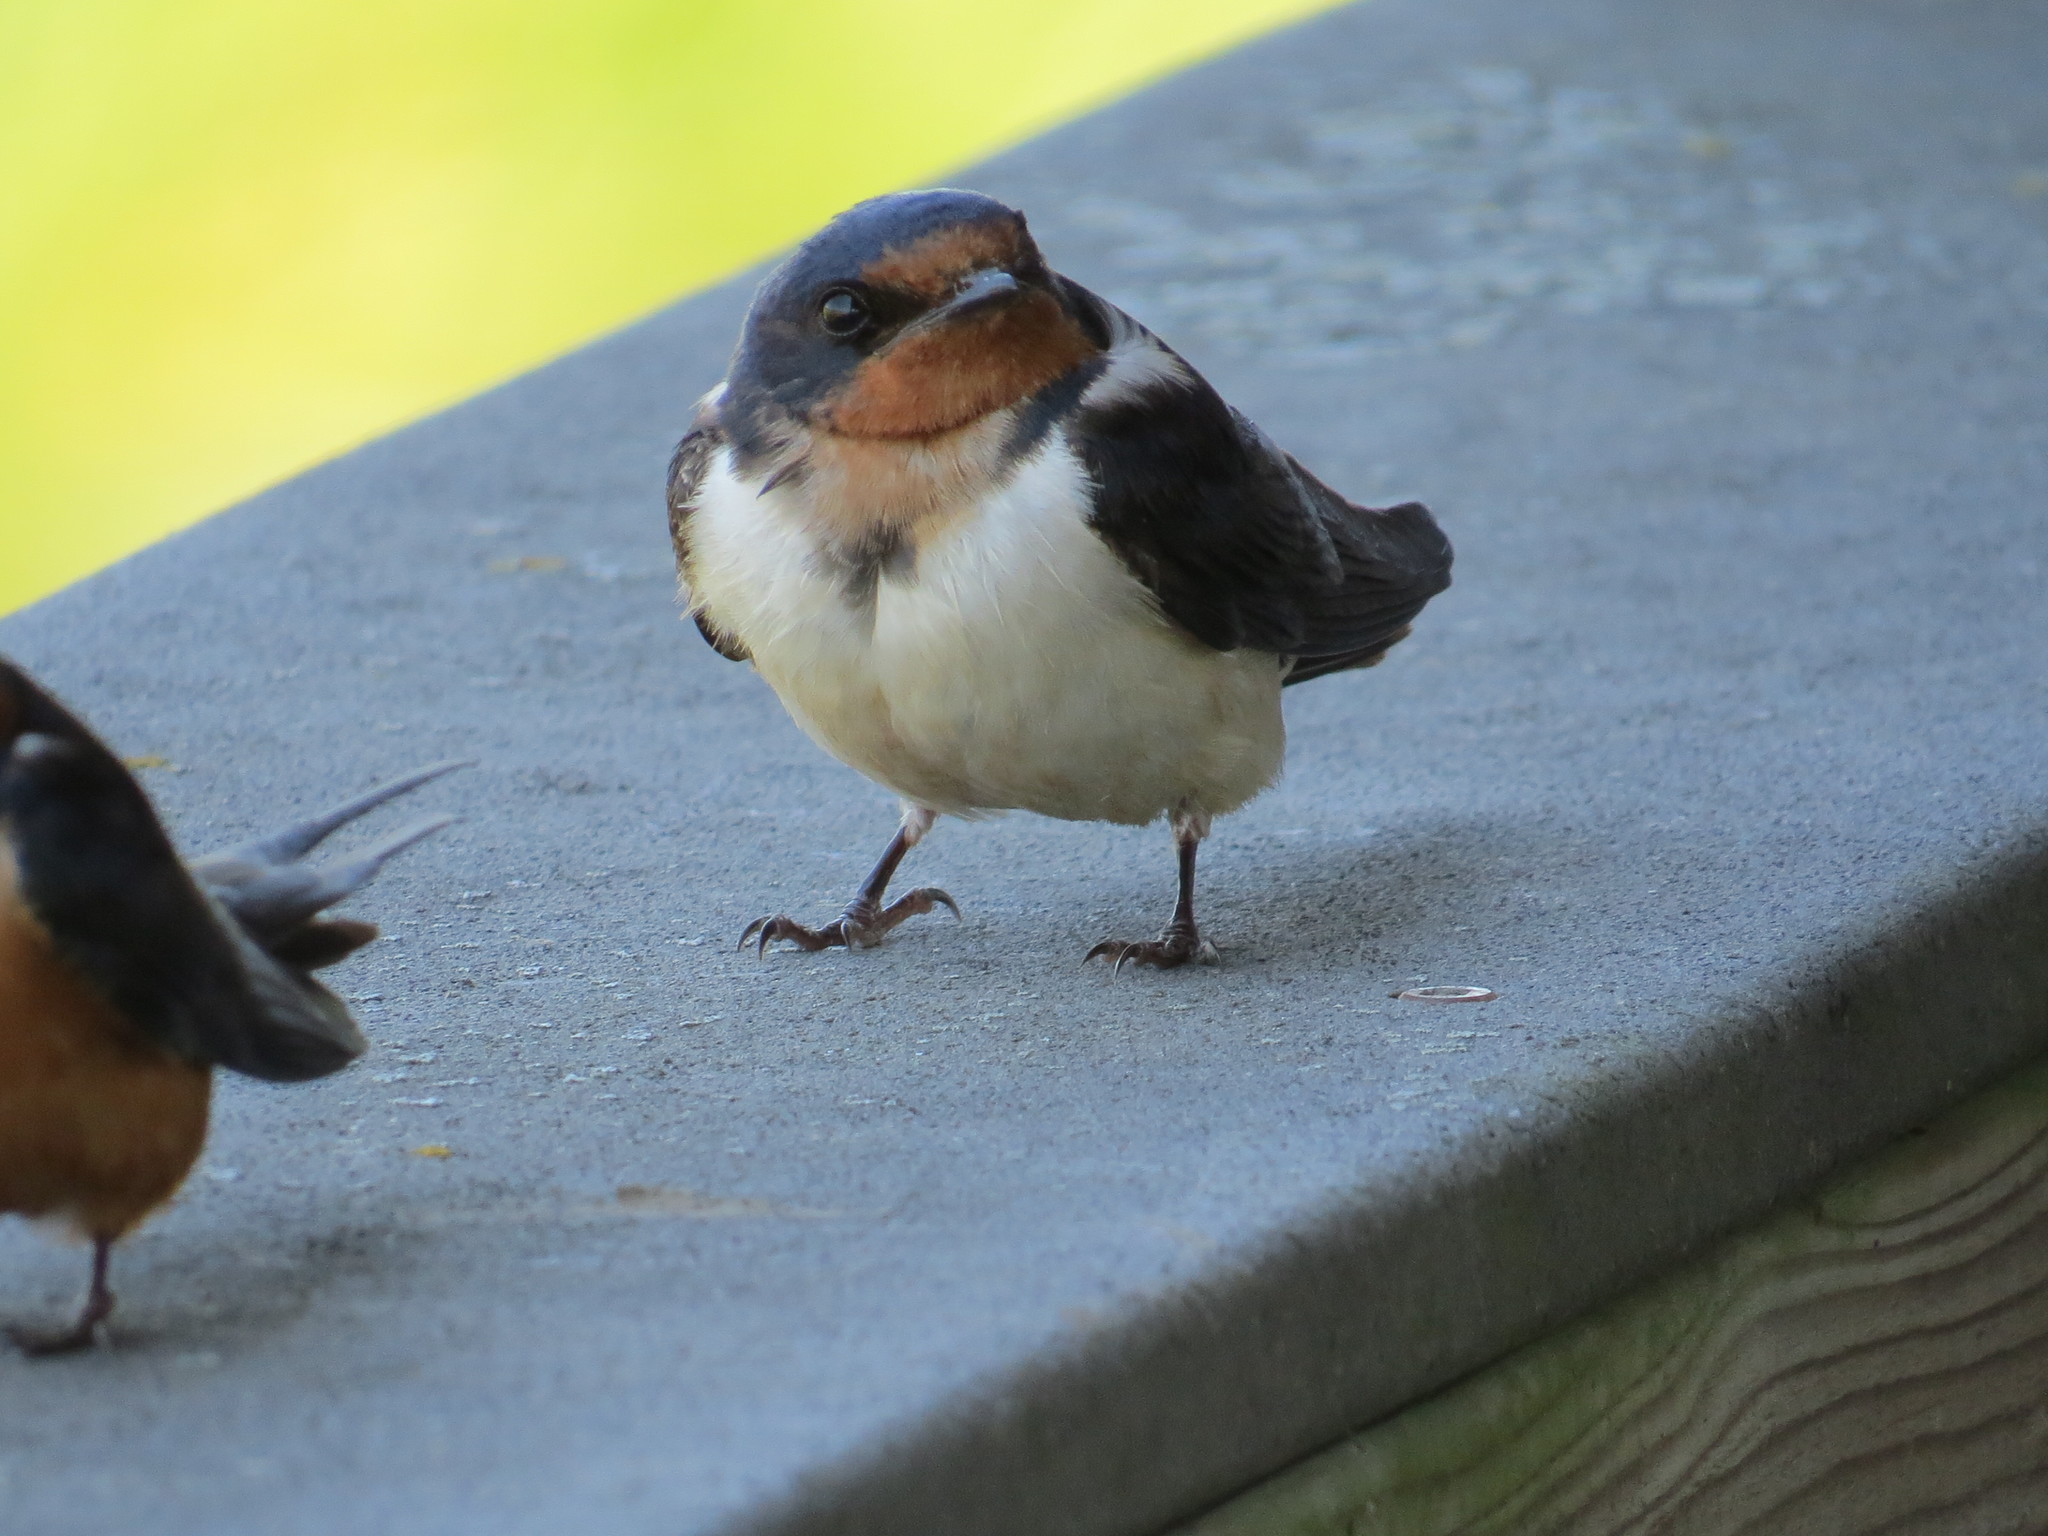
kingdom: Animalia
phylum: Chordata
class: Aves
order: Passeriformes
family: Hirundinidae
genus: Hirundo
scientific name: Hirundo rustica
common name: Barn swallow
